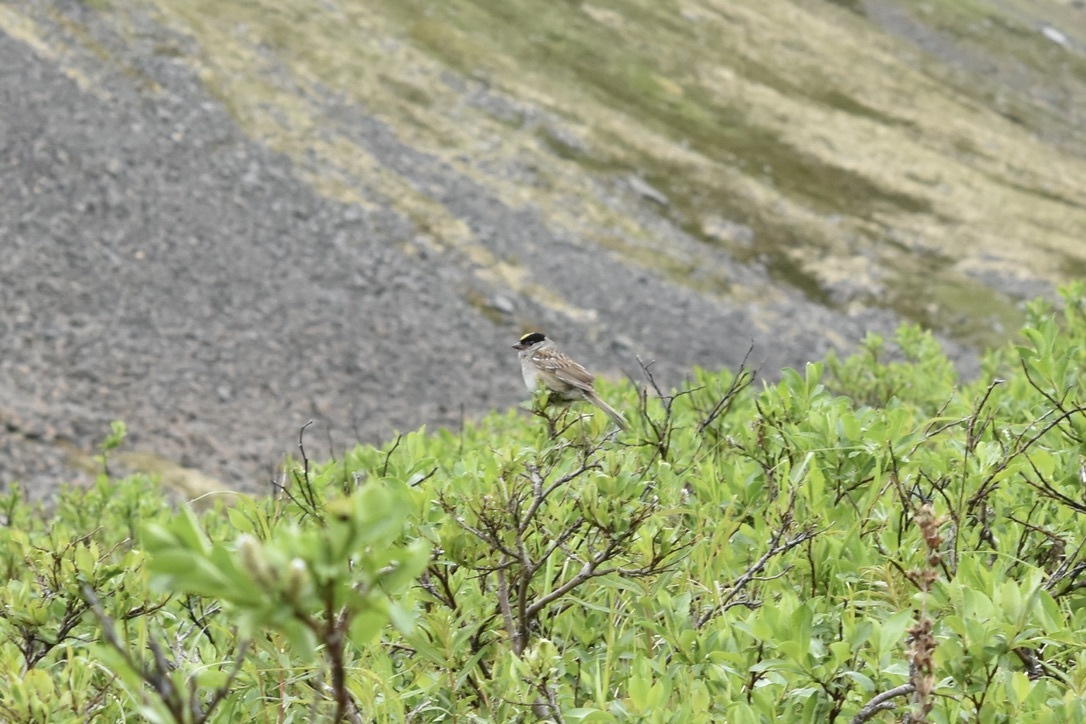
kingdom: Animalia
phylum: Chordata
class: Aves
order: Passeriformes
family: Passerellidae
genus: Zonotrichia
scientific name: Zonotrichia atricapilla
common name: Golden-crowned sparrow
